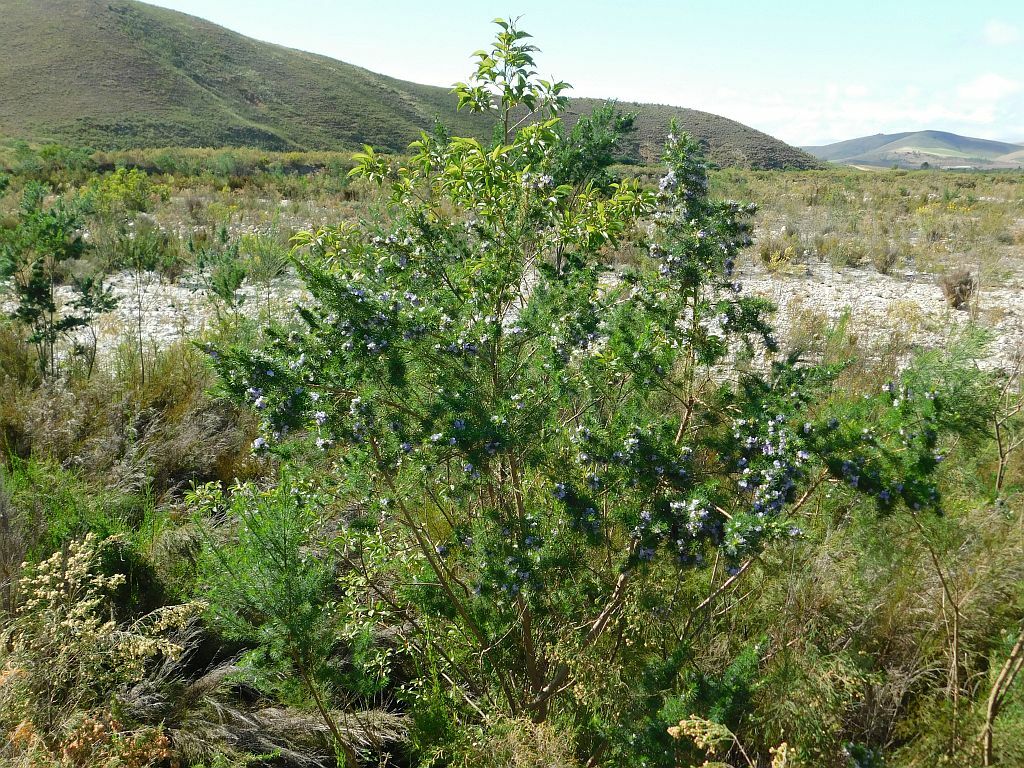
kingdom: Plantae
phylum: Tracheophyta
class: Magnoliopsida
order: Fabales
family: Fabaceae
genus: Psoralea
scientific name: Psoralea ivumba
